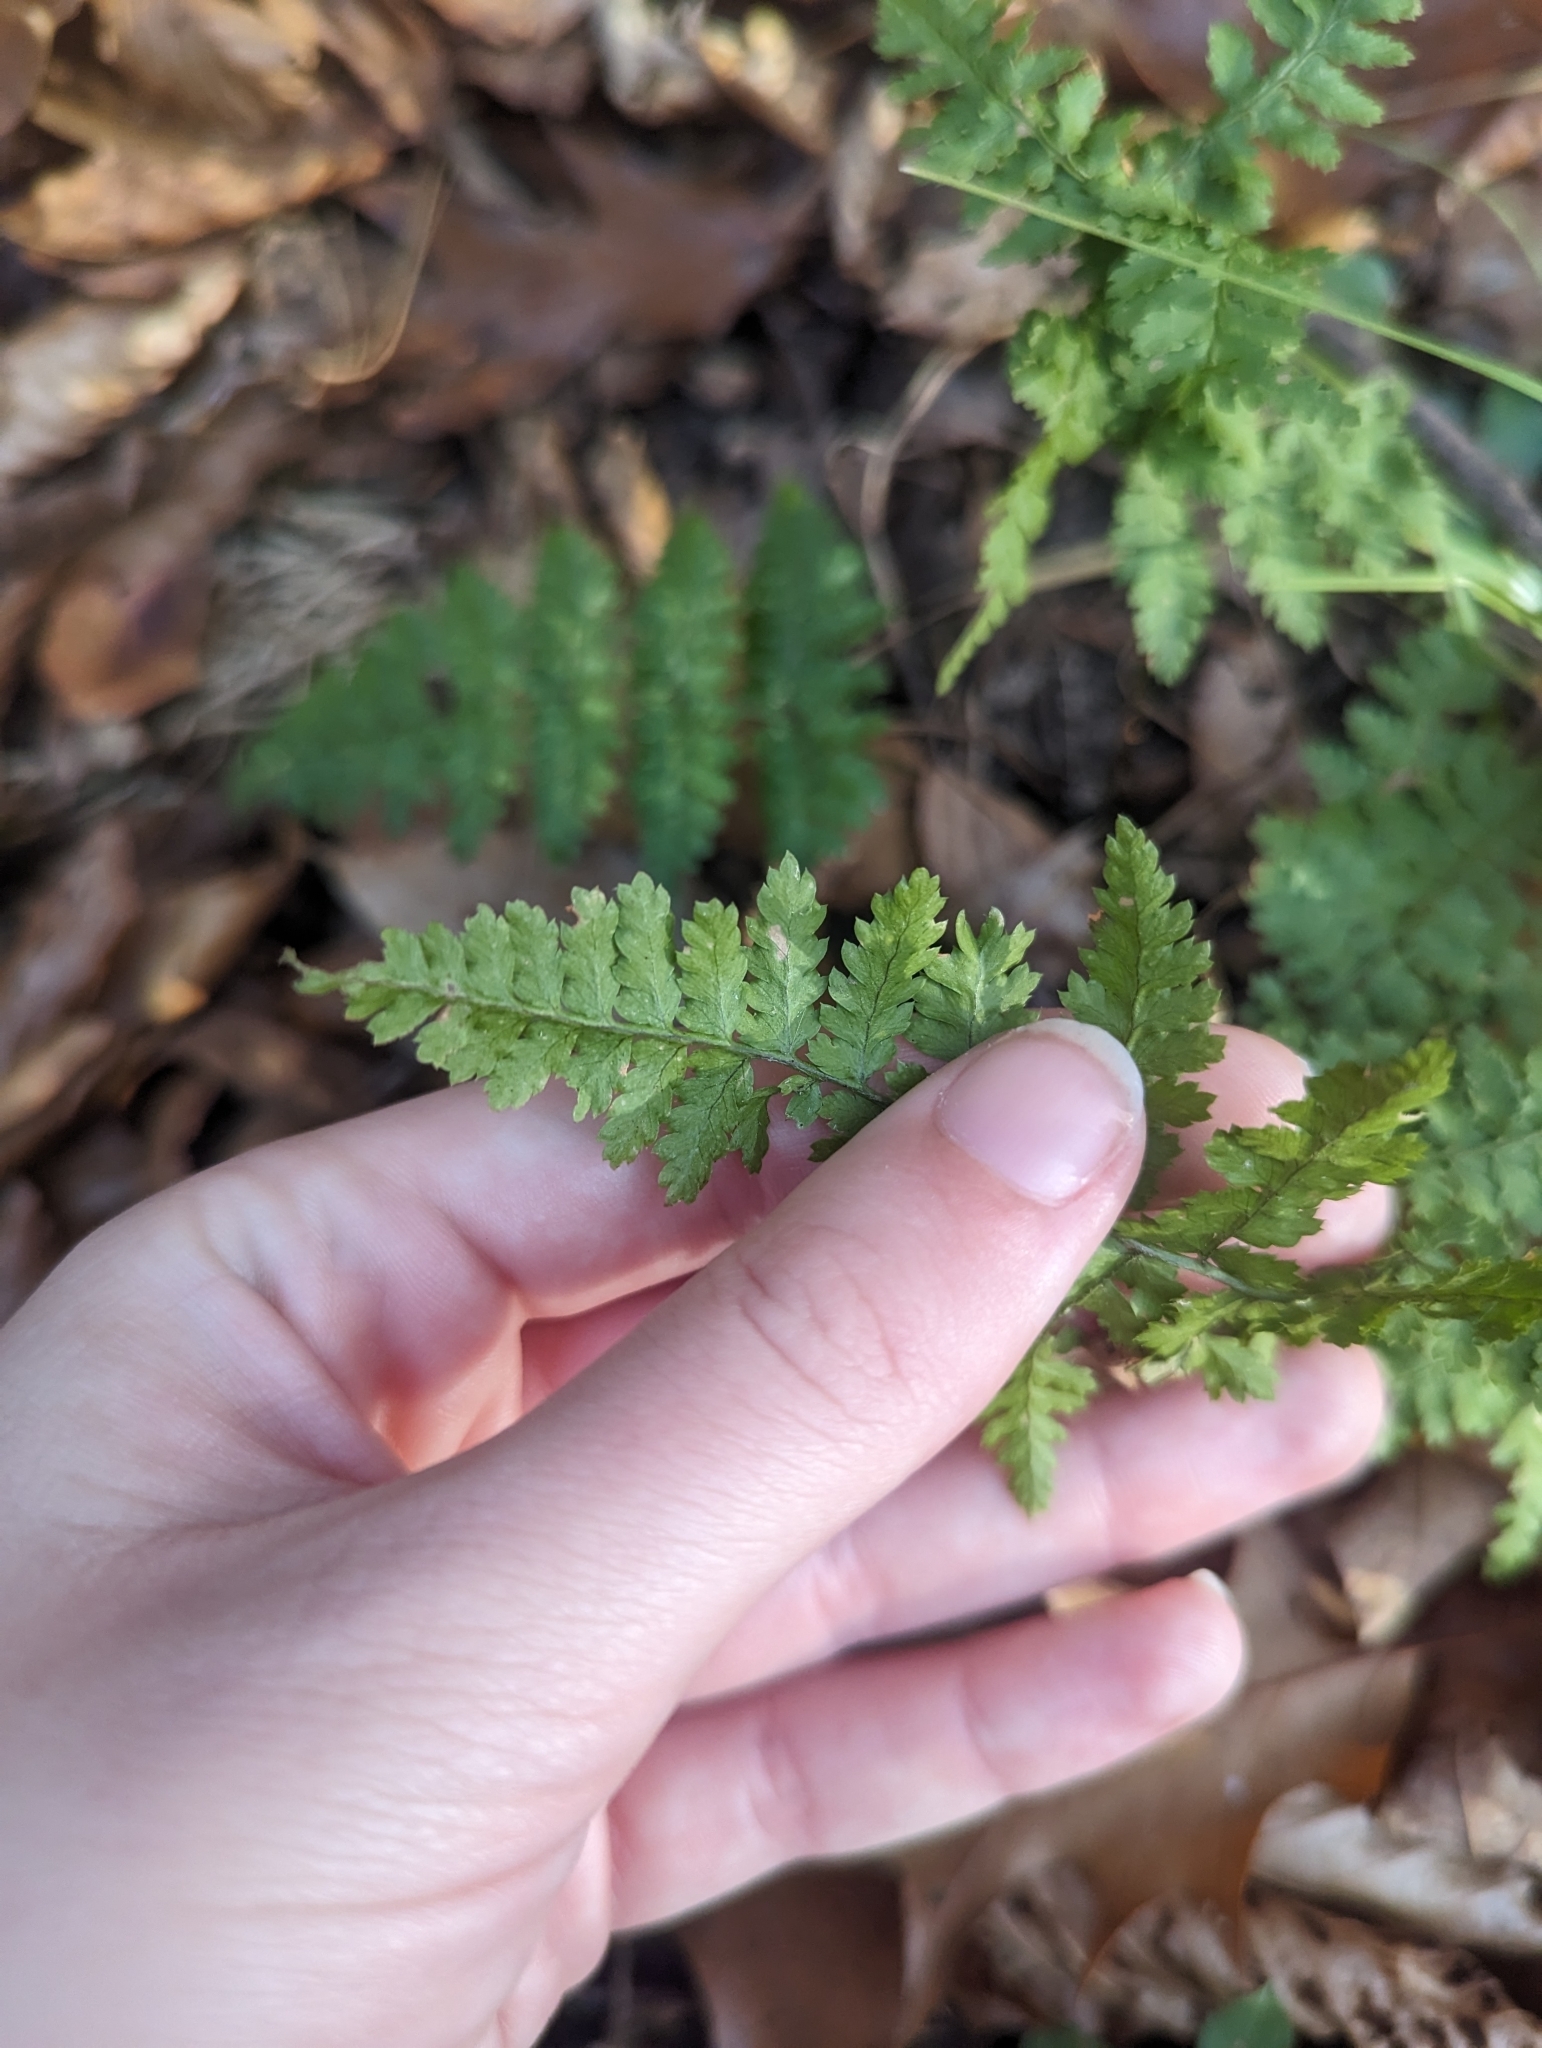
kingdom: Plantae
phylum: Tracheophyta
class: Polypodiopsida
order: Polypodiales
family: Dryopteridaceae
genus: Dryopteris
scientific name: Dryopteris intermedia
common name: Evergreen wood fern
